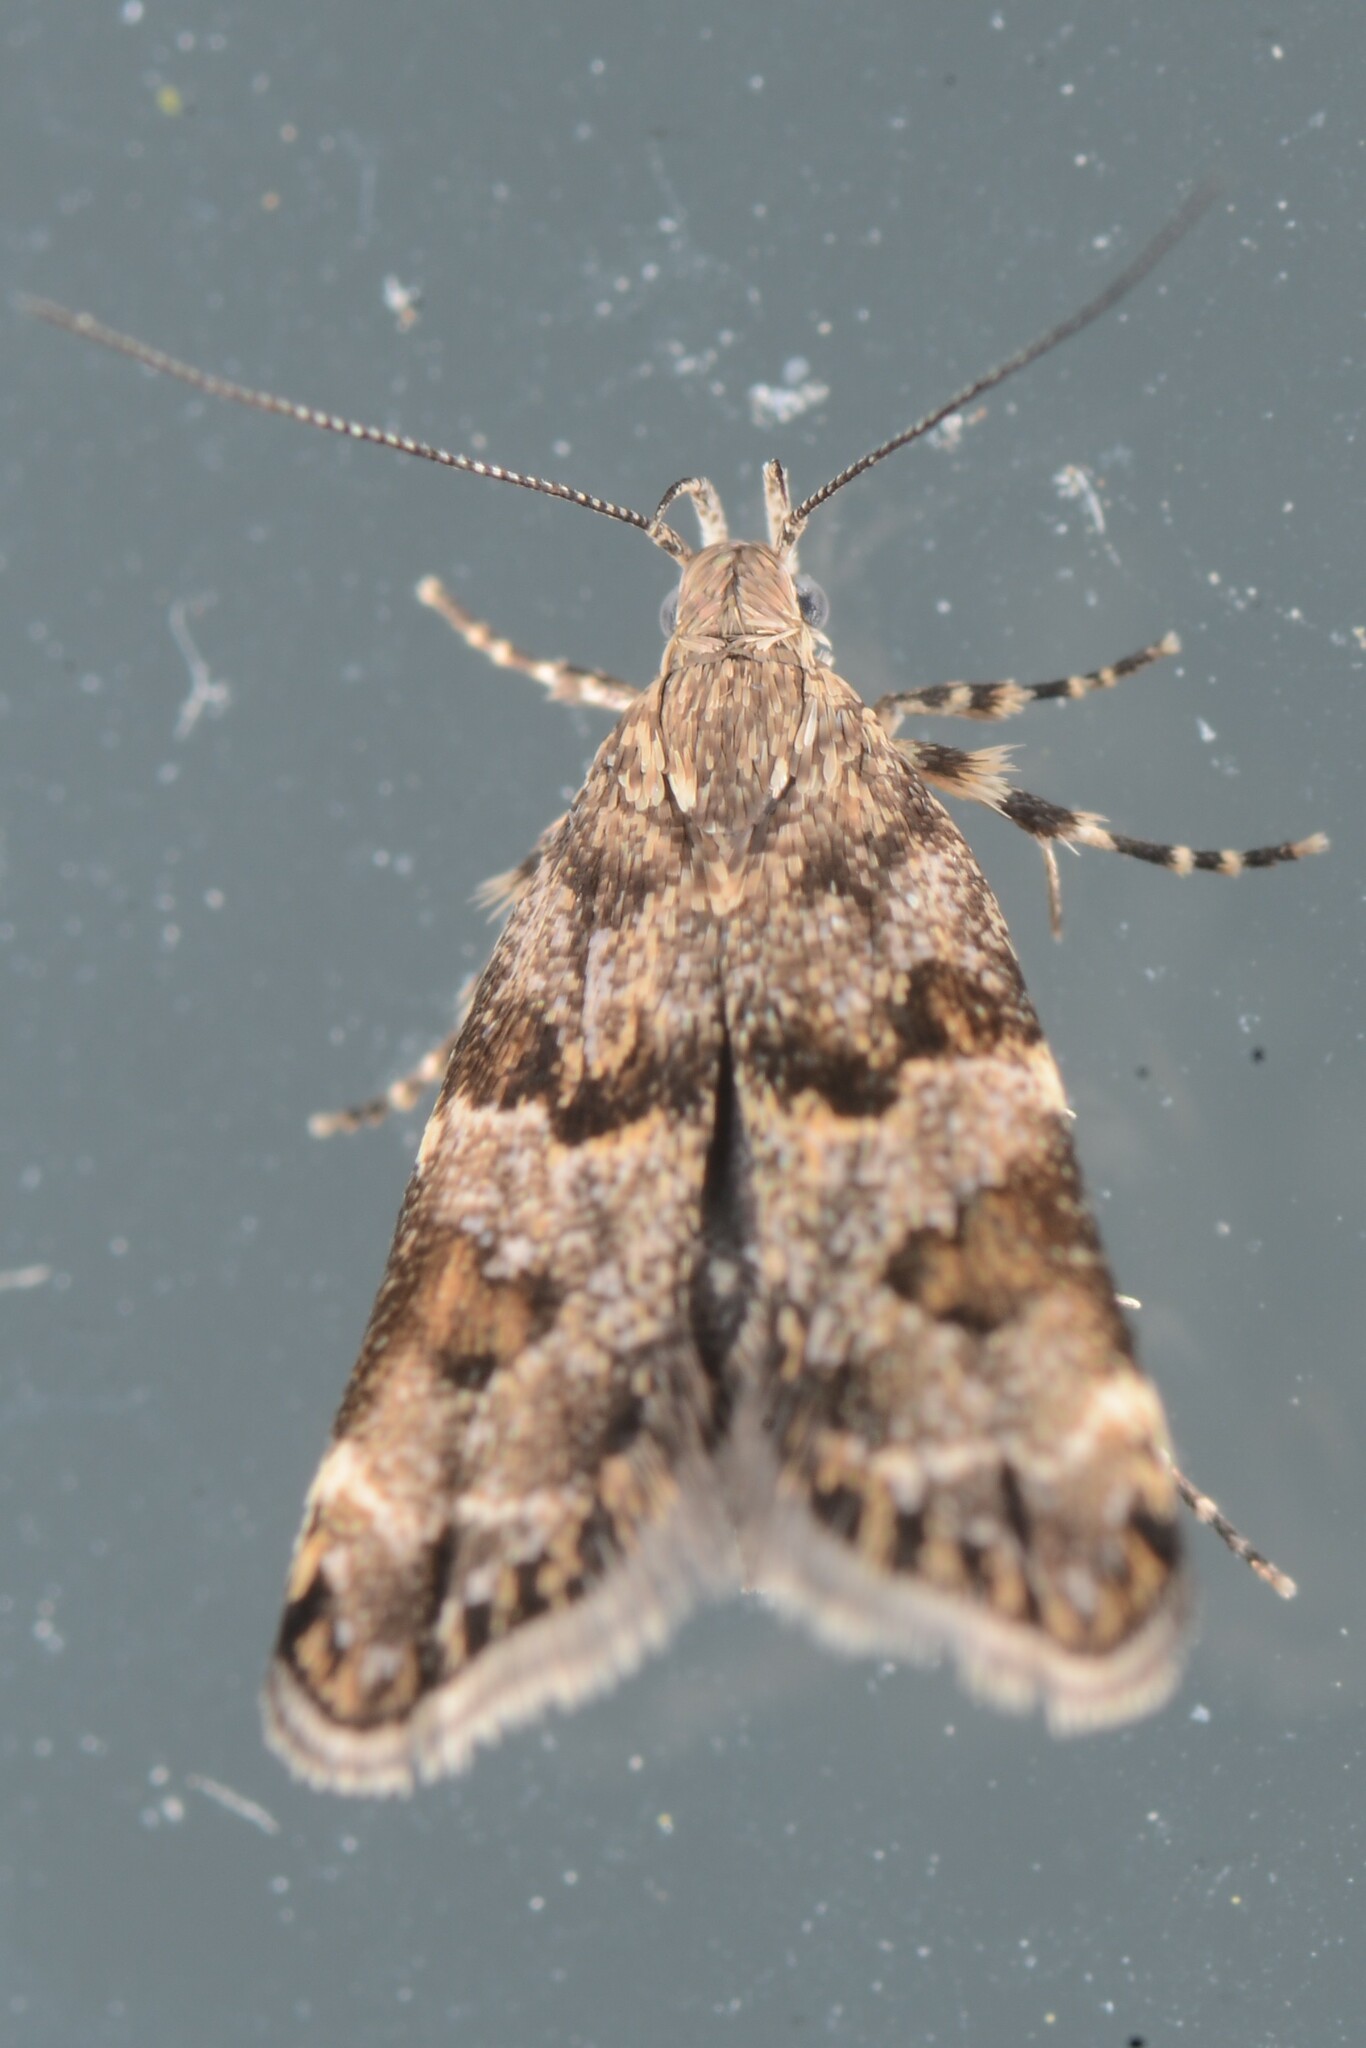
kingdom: Animalia
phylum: Arthropoda
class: Insecta
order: Lepidoptera
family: Oecophoridae
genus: Gymnobathra
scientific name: Gymnobathra omphalota
